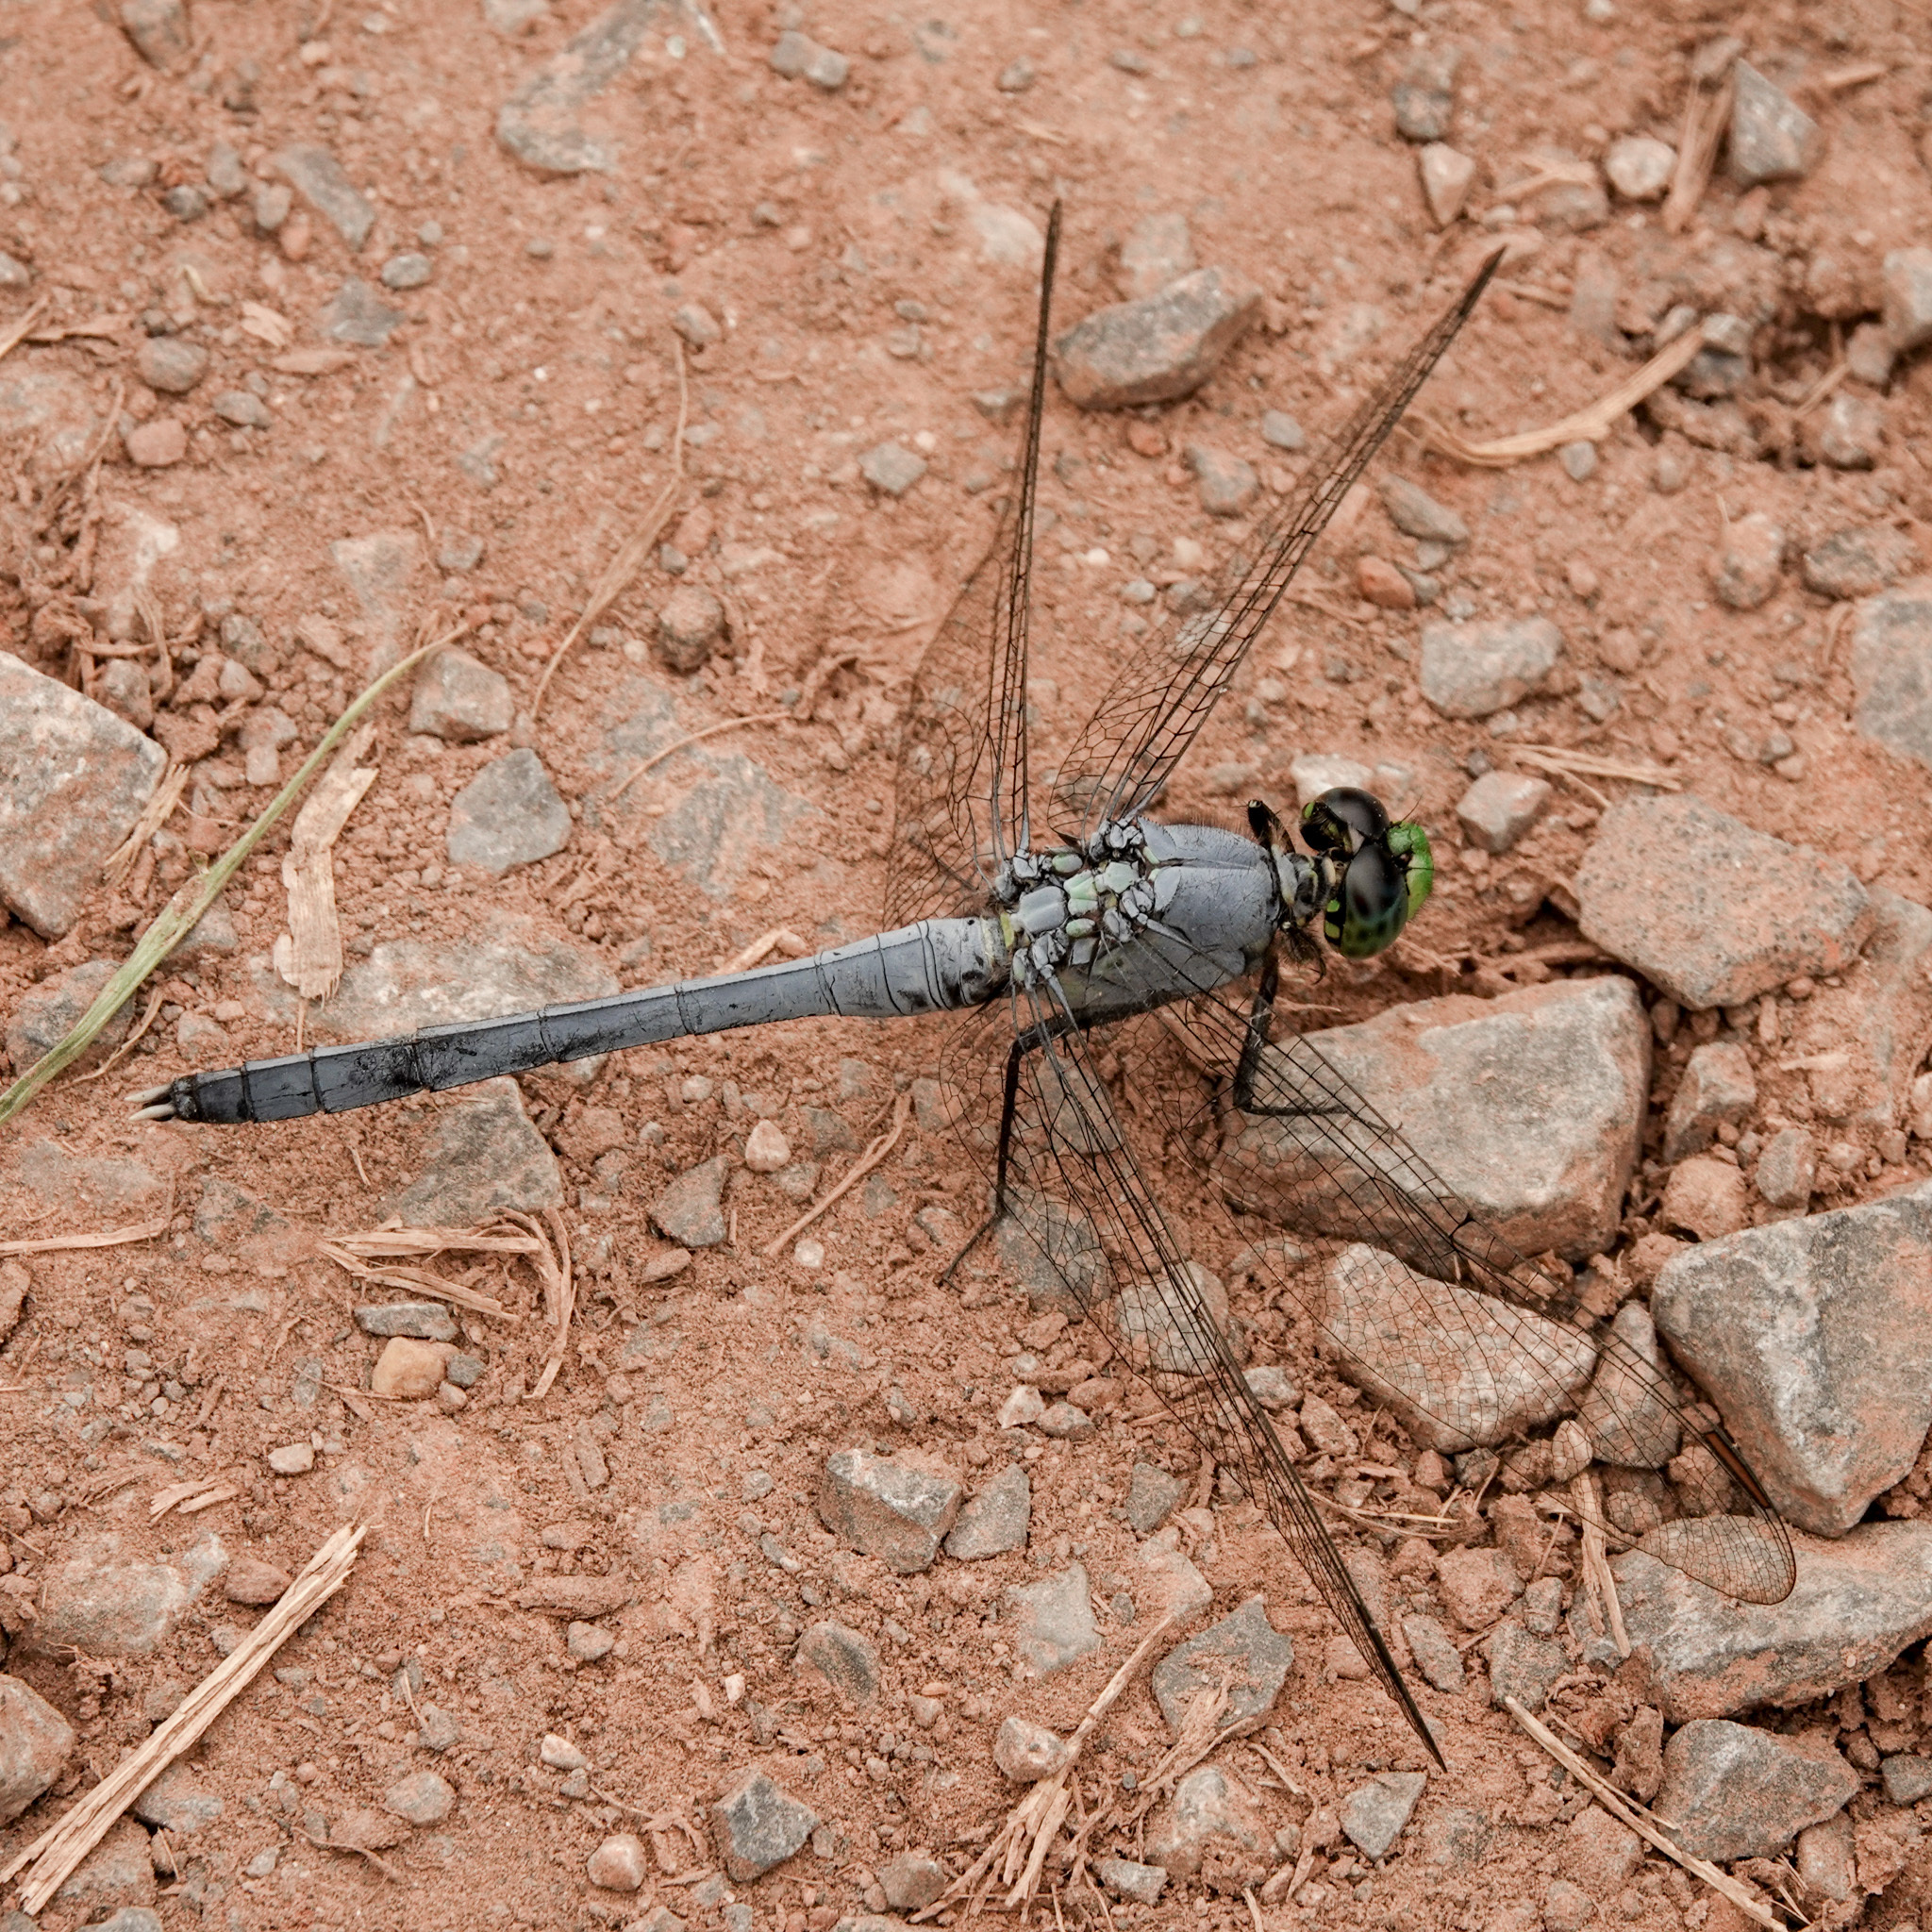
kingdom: Animalia
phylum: Arthropoda
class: Insecta
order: Odonata
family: Libellulidae
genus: Erythemis
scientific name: Erythemis simplicicollis
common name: Eastern pondhawk
